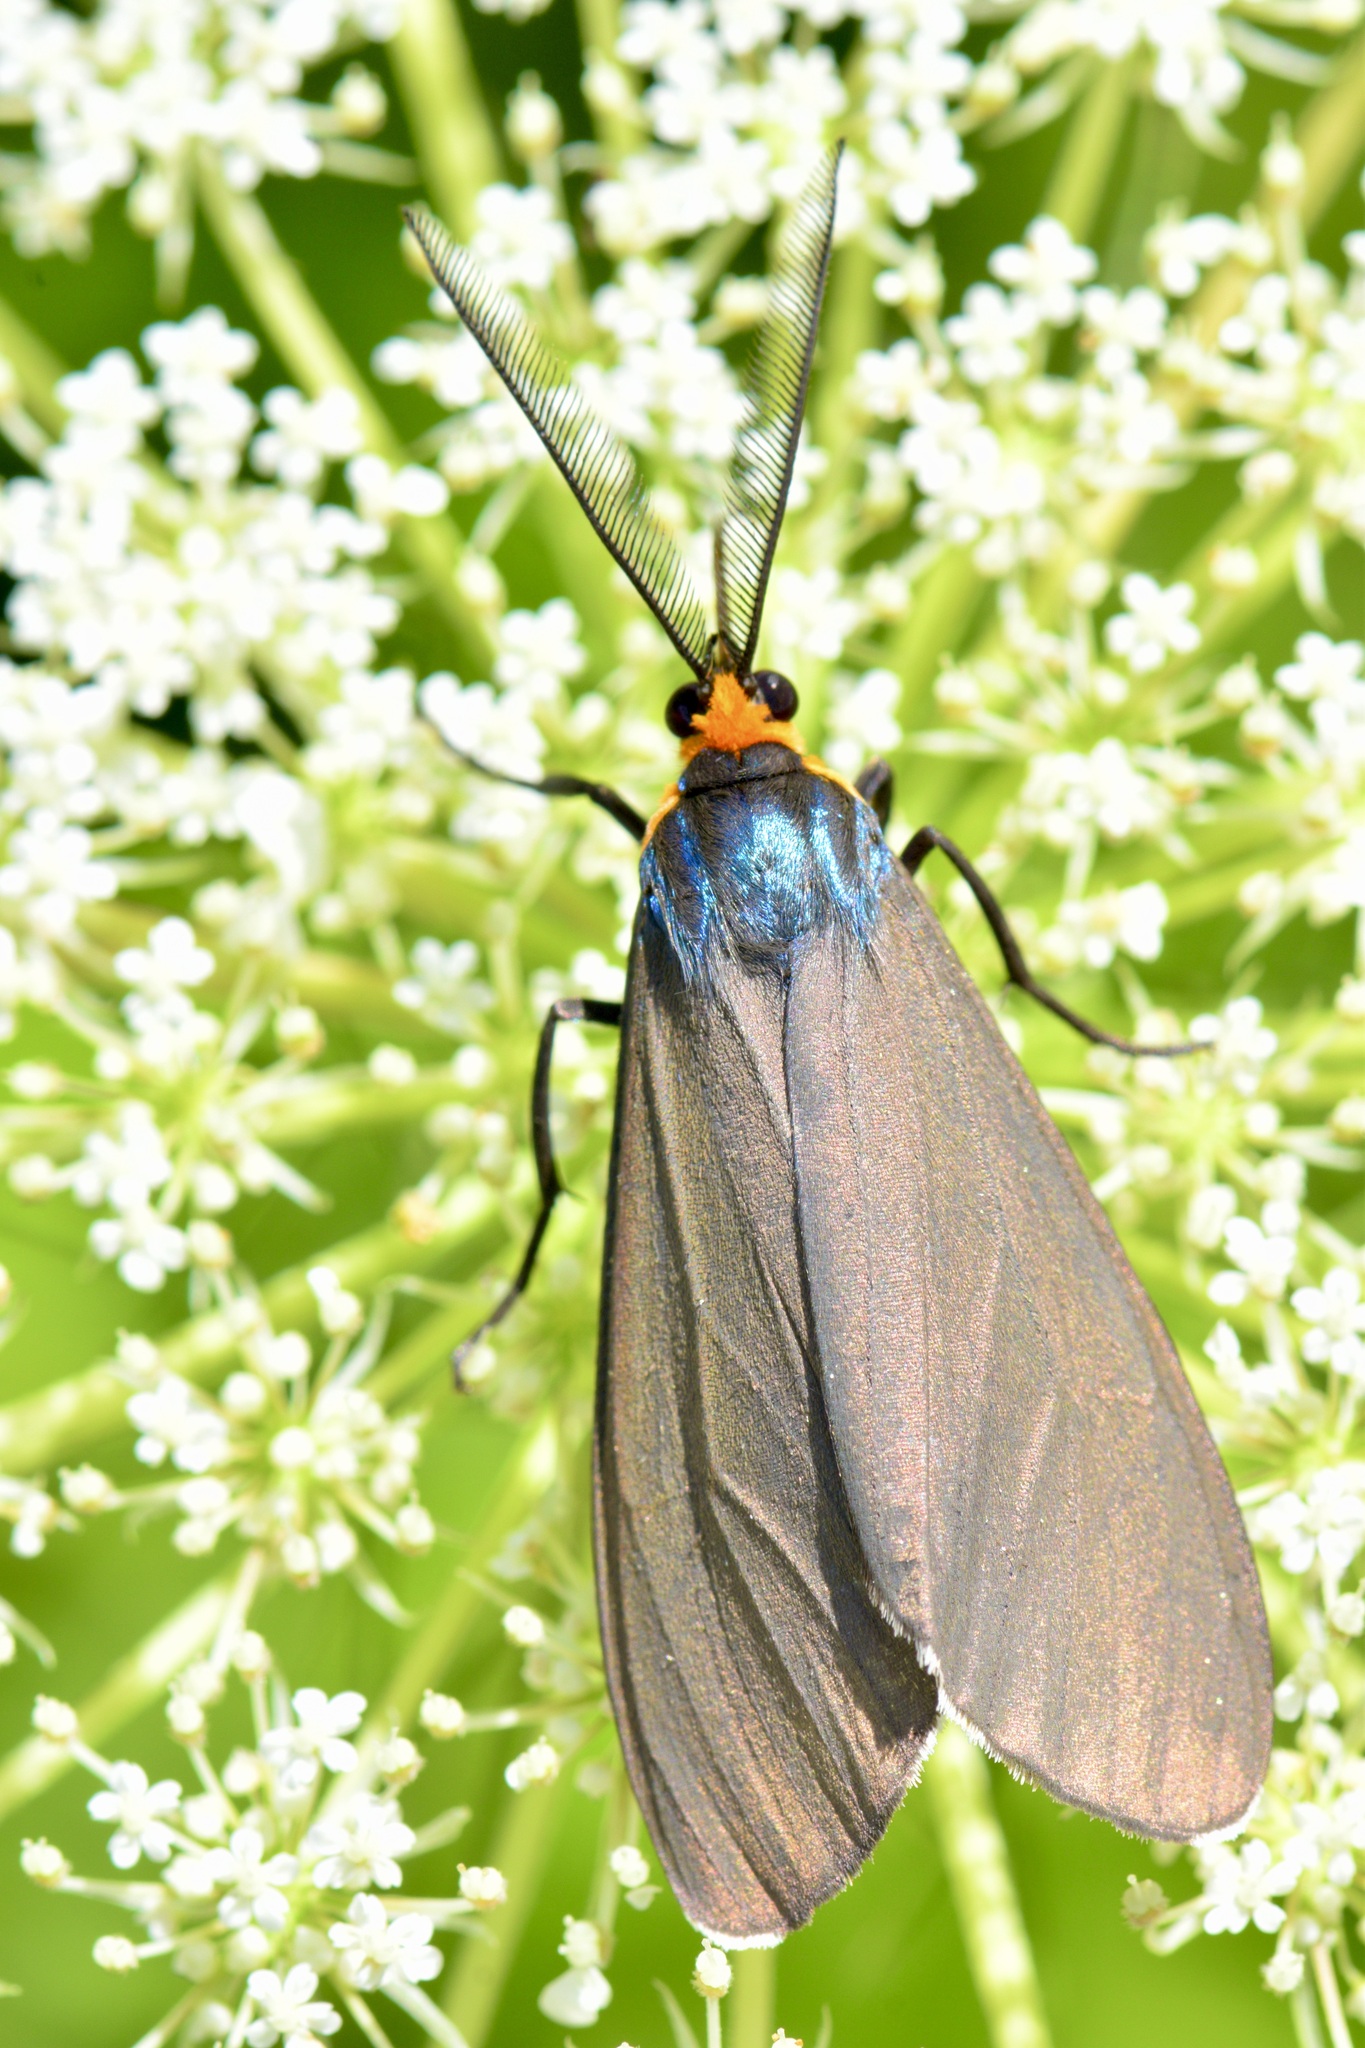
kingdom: Animalia
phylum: Arthropoda
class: Insecta
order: Lepidoptera
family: Erebidae
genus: Ctenucha
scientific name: Ctenucha virginica
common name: Virginia ctenucha moth
